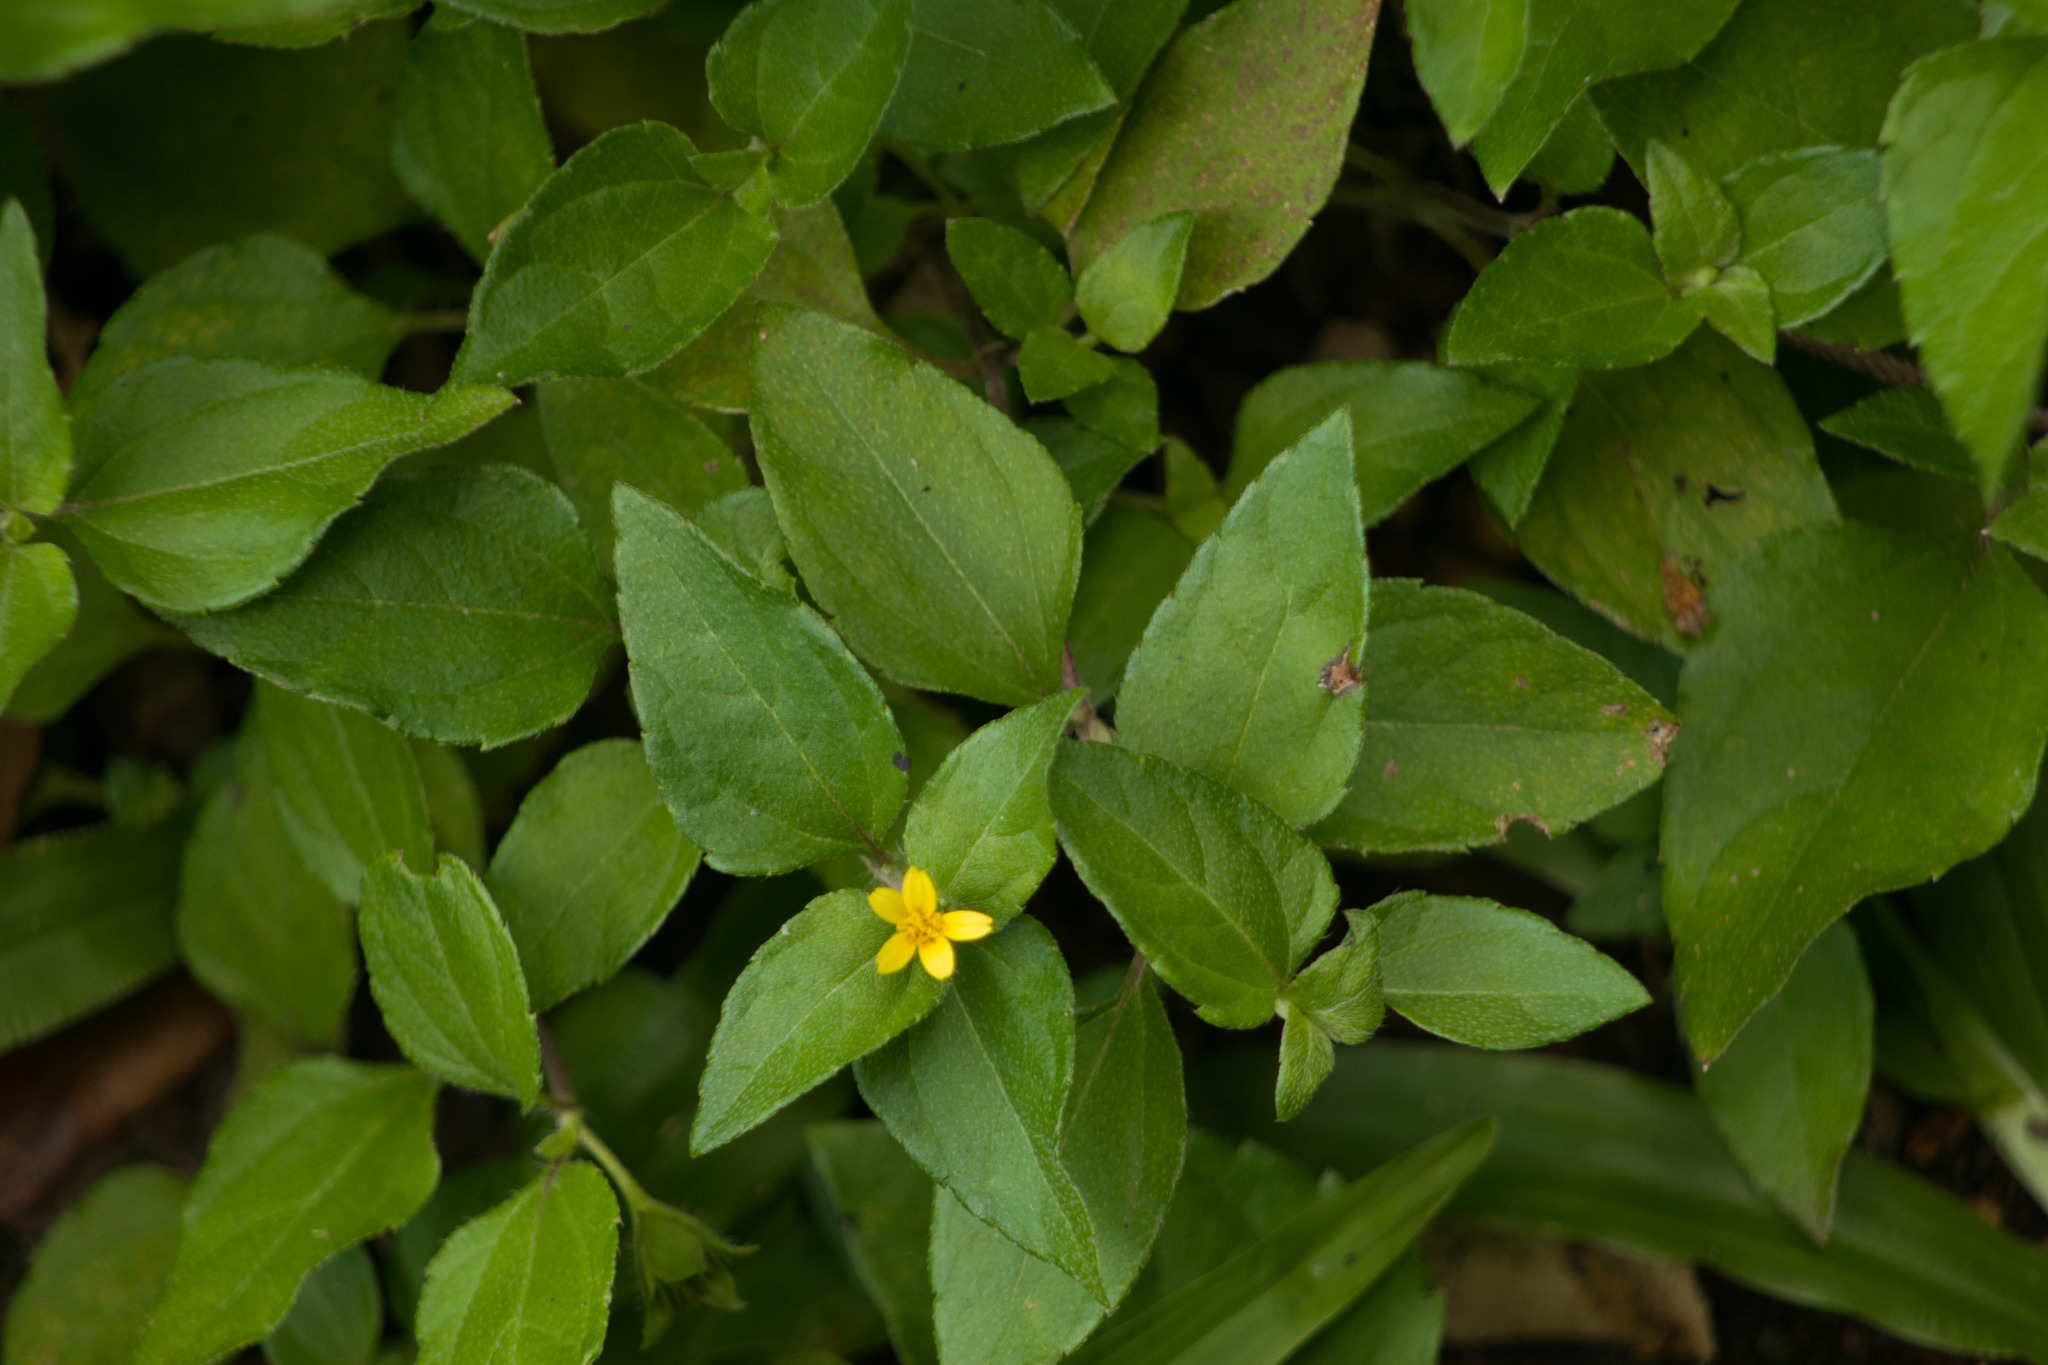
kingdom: Plantae
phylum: Tracheophyta
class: Magnoliopsida
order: Asterales
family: Asteraceae
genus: Calyptocarpus
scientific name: Calyptocarpus vialis
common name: Straggler daisy
